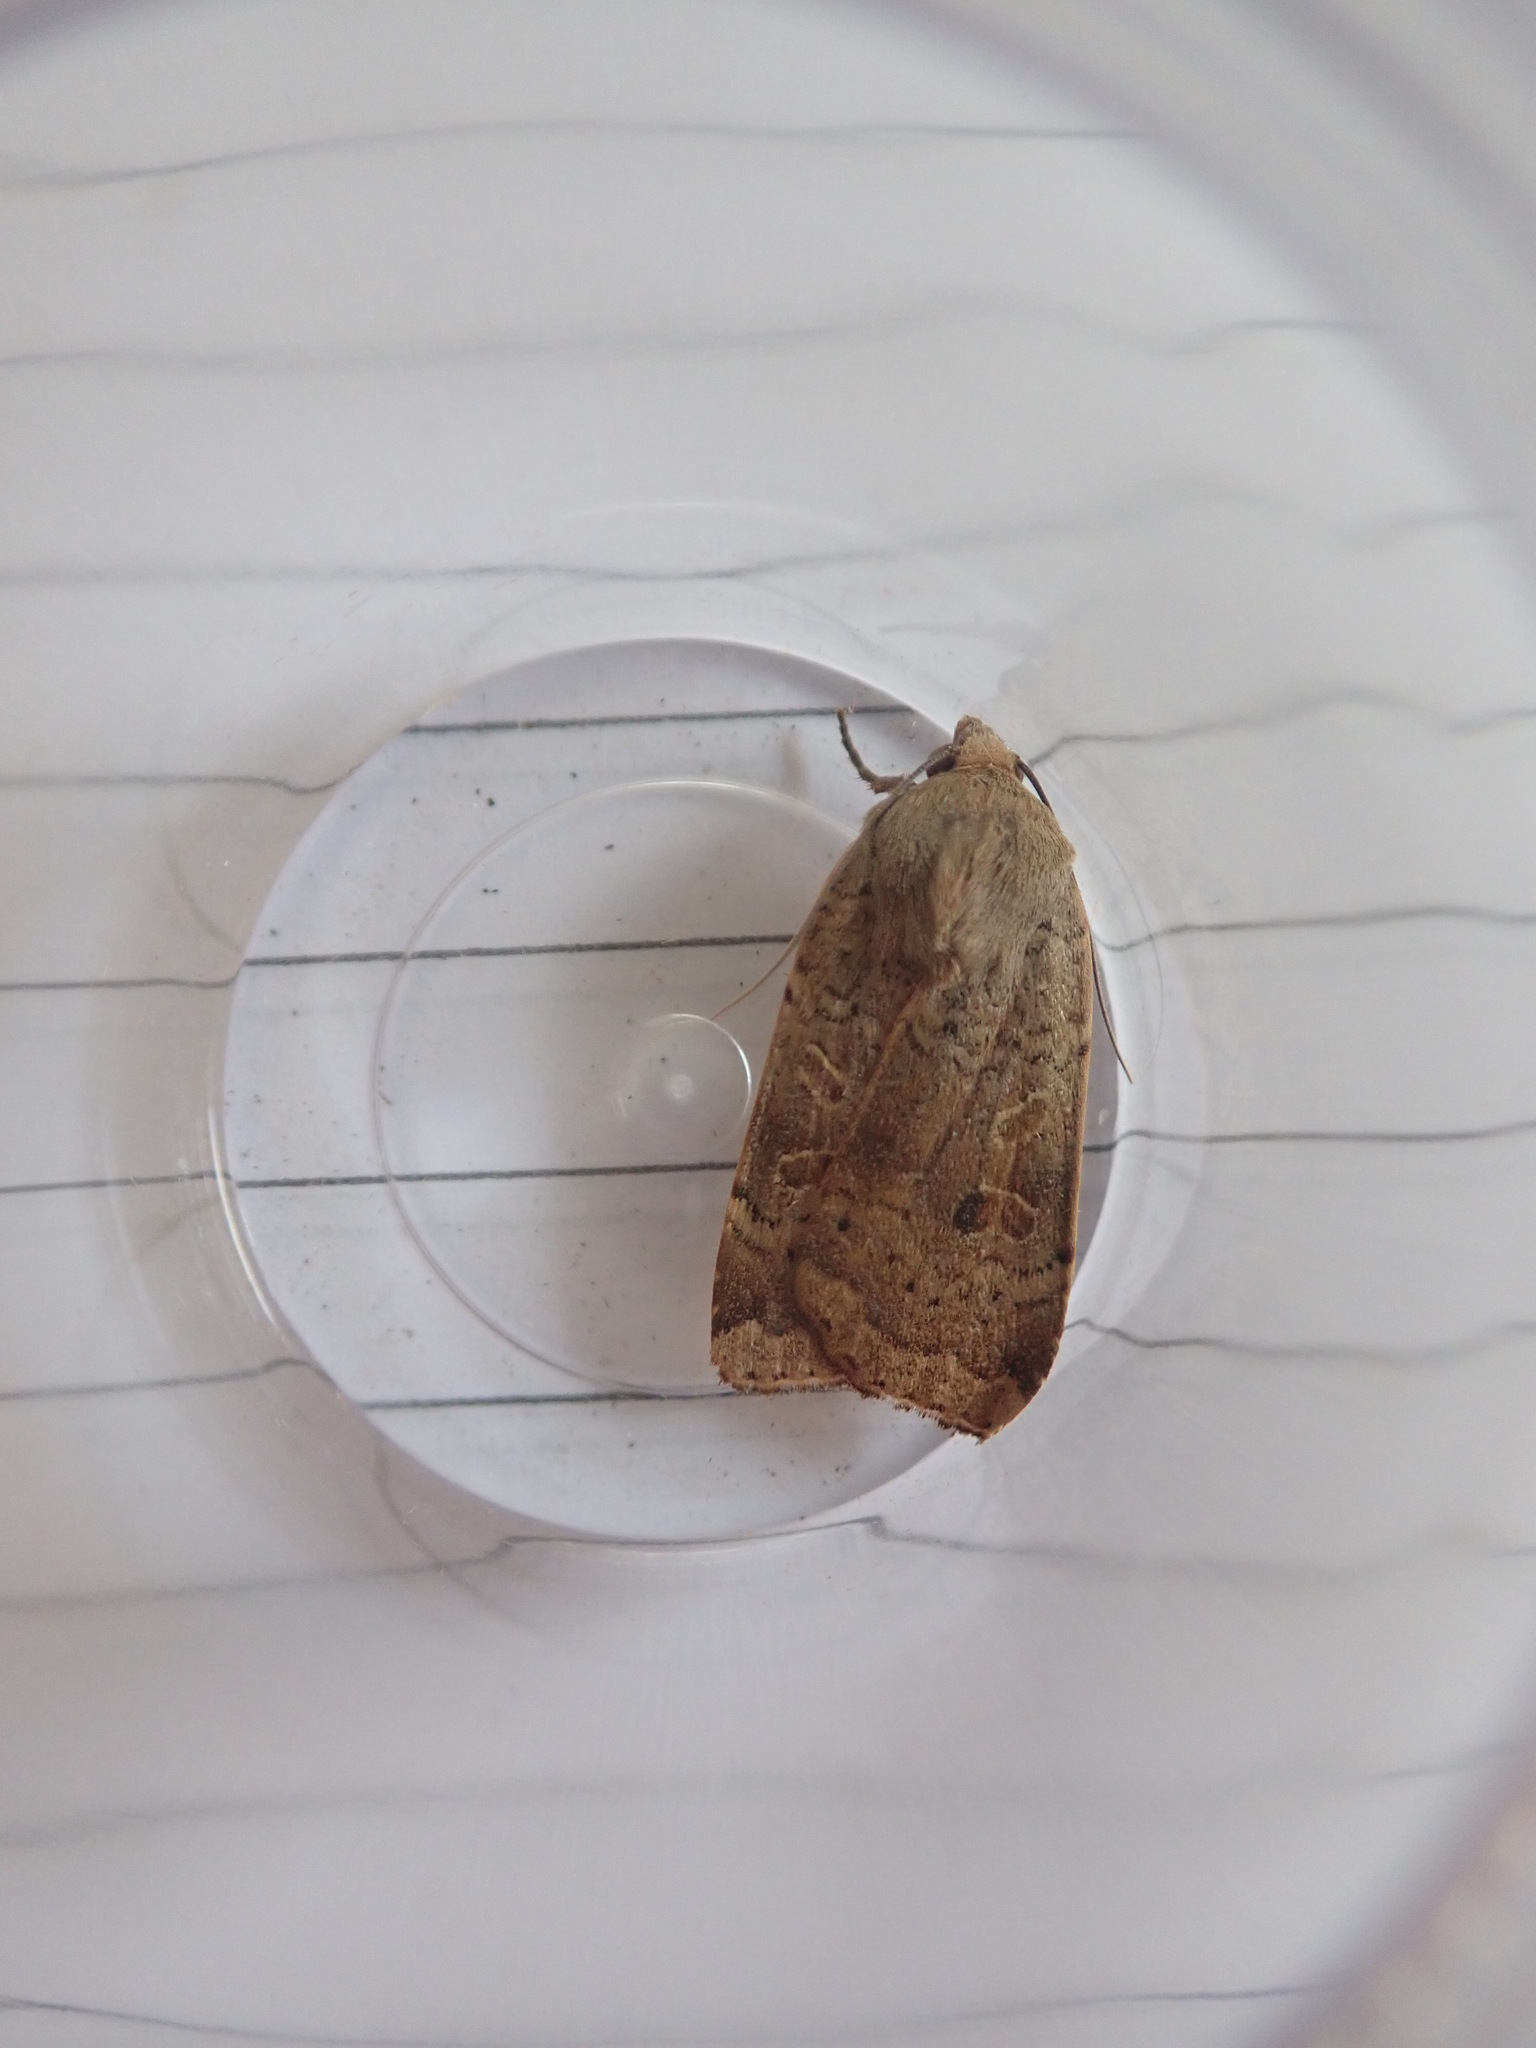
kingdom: Animalia
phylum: Arthropoda
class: Insecta
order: Lepidoptera
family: Noctuidae
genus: Noctua
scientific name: Noctua comes
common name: Lesser yellow underwing
